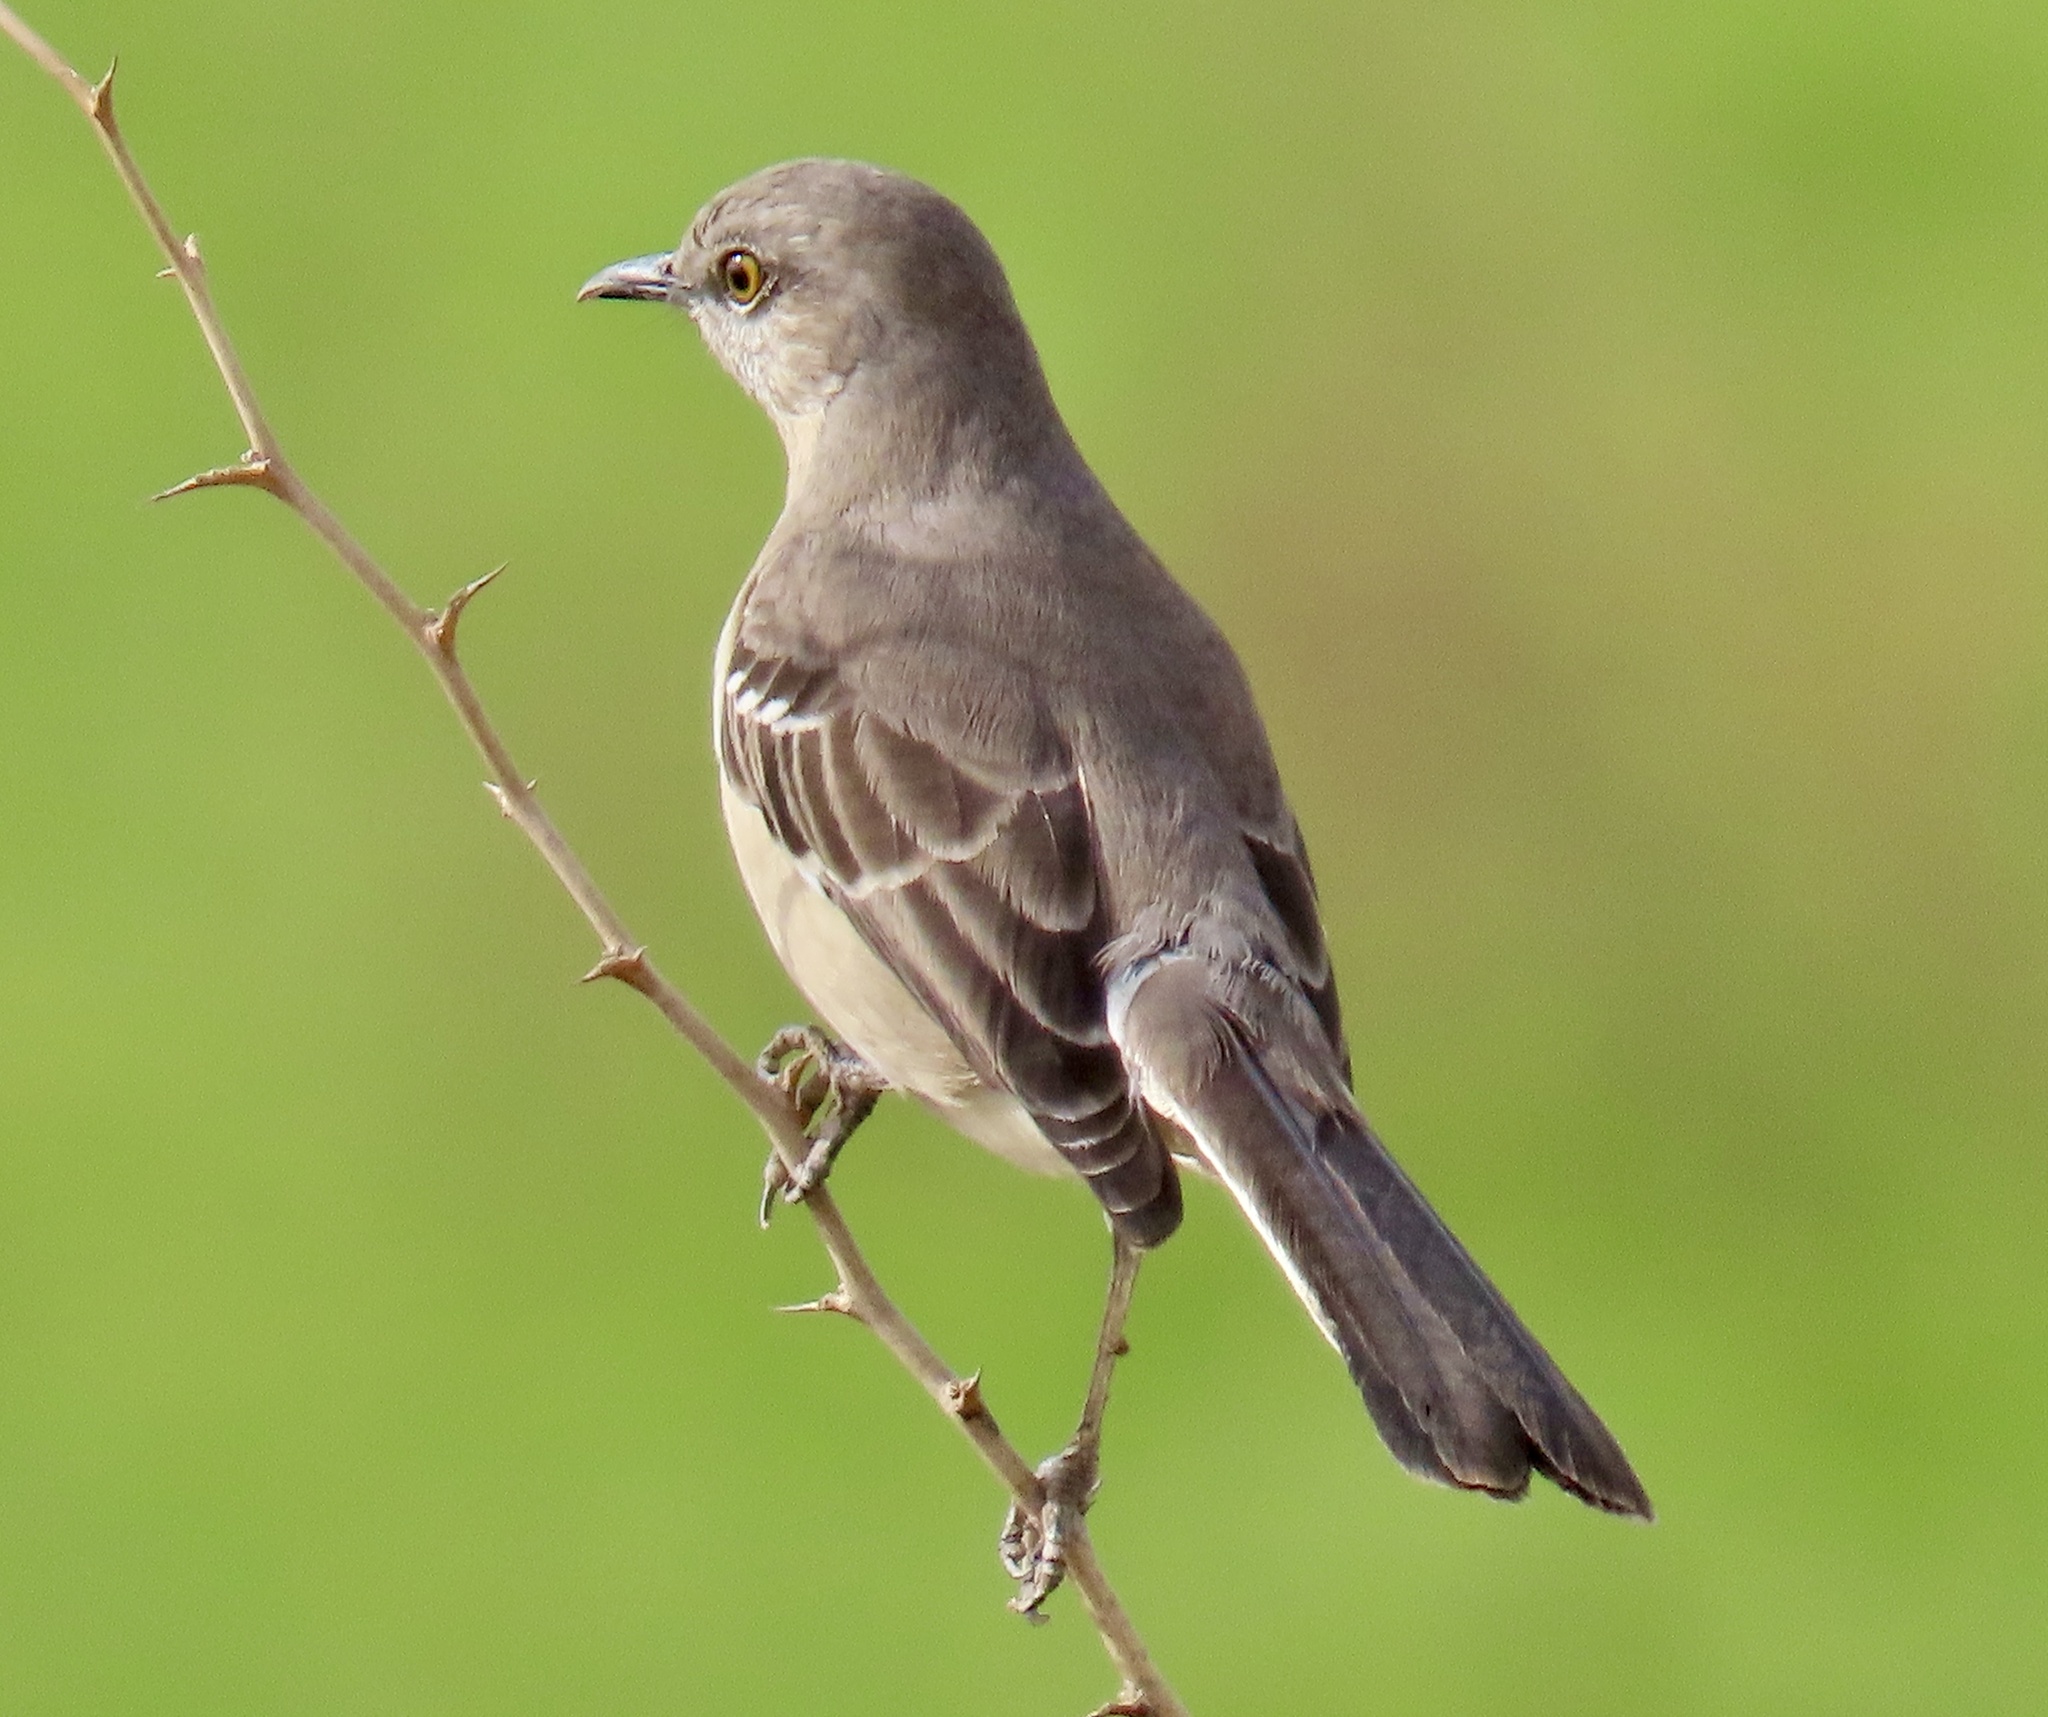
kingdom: Animalia
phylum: Chordata
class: Aves
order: Passeriformes
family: Mimidae
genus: Mimus
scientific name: Mimus polyglottos
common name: Northern mockingbird
